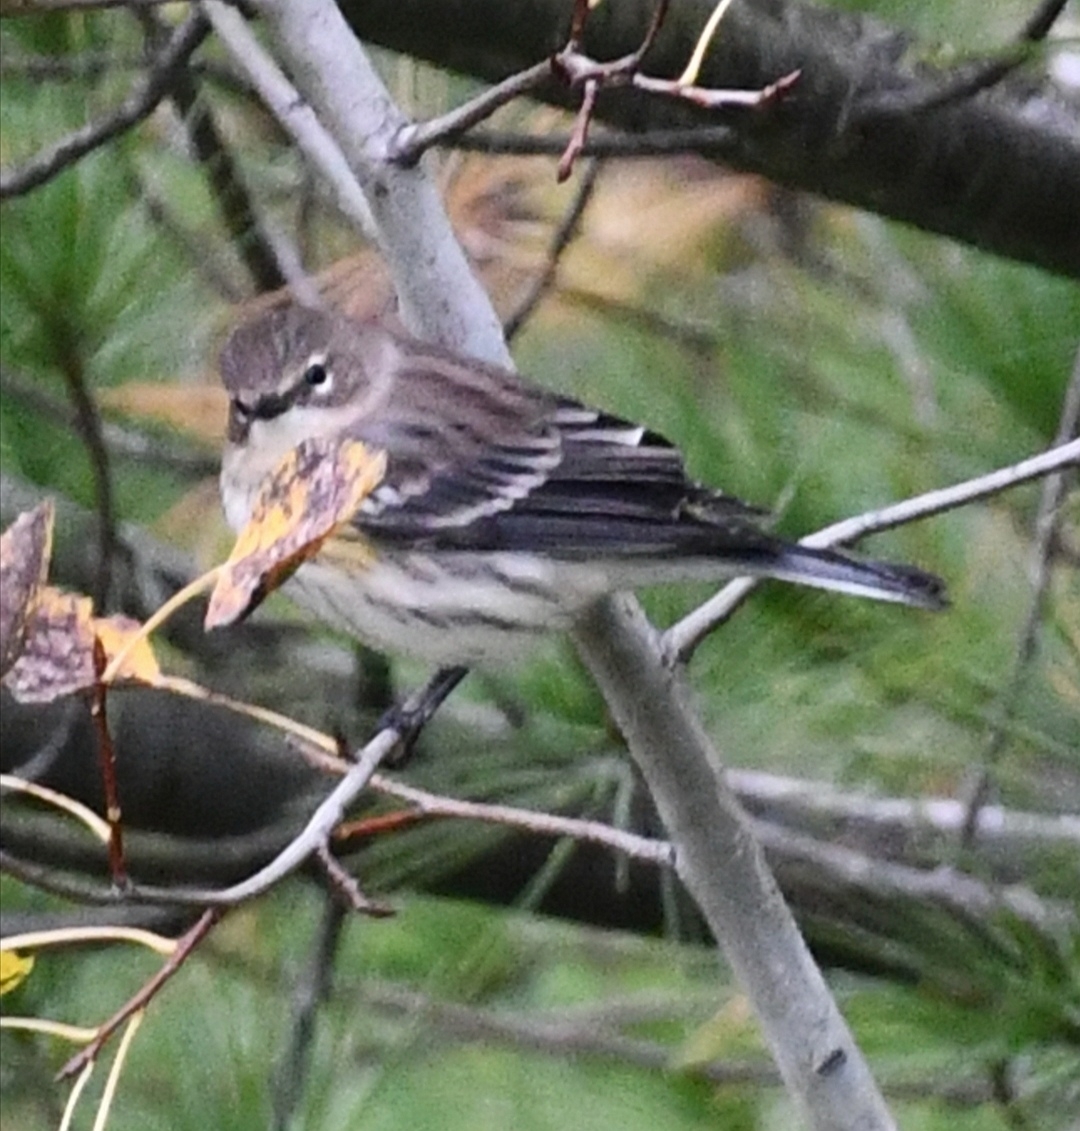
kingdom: Animalia
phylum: Chordata
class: Aves
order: Passeriformes
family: Parulidae
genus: Setophaga
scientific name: Setophaga coronata
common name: Myrtle warbler
